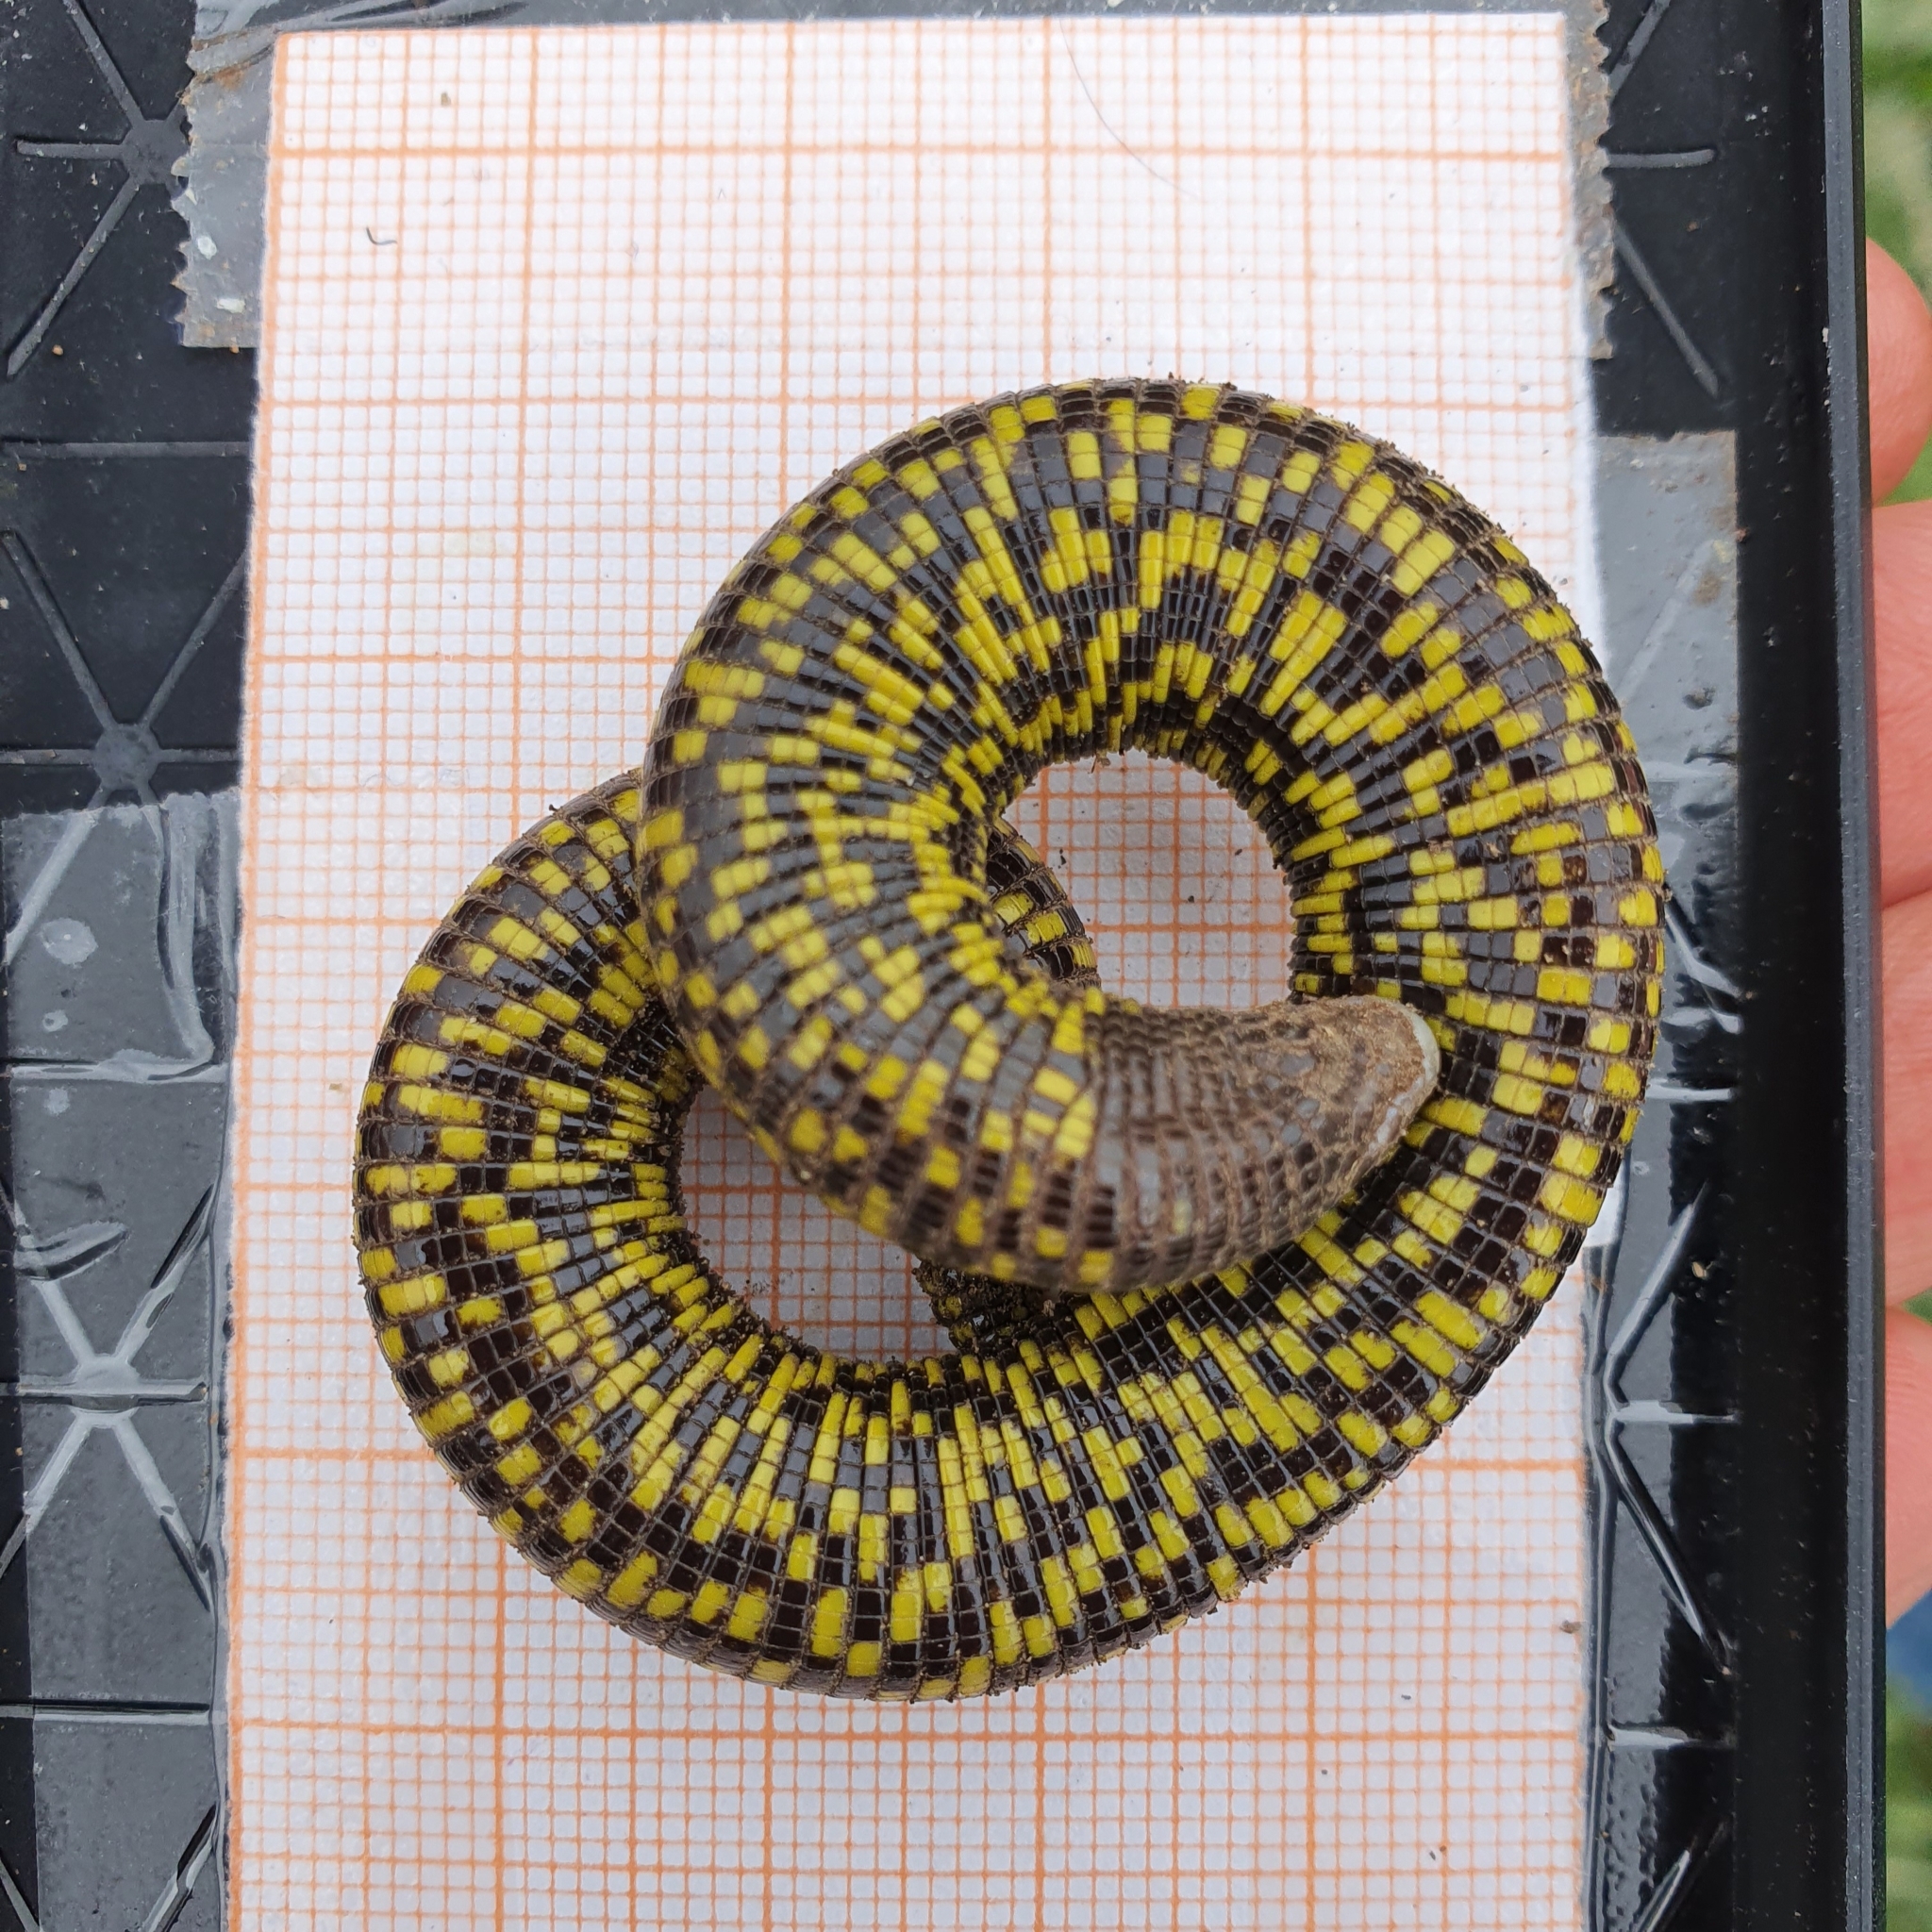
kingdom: Animalia
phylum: Chordata
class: Squamata
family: Trogonophidae
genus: Trogonophis
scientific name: Trogonophis wiegmanni
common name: Checkerboard worm lizard
